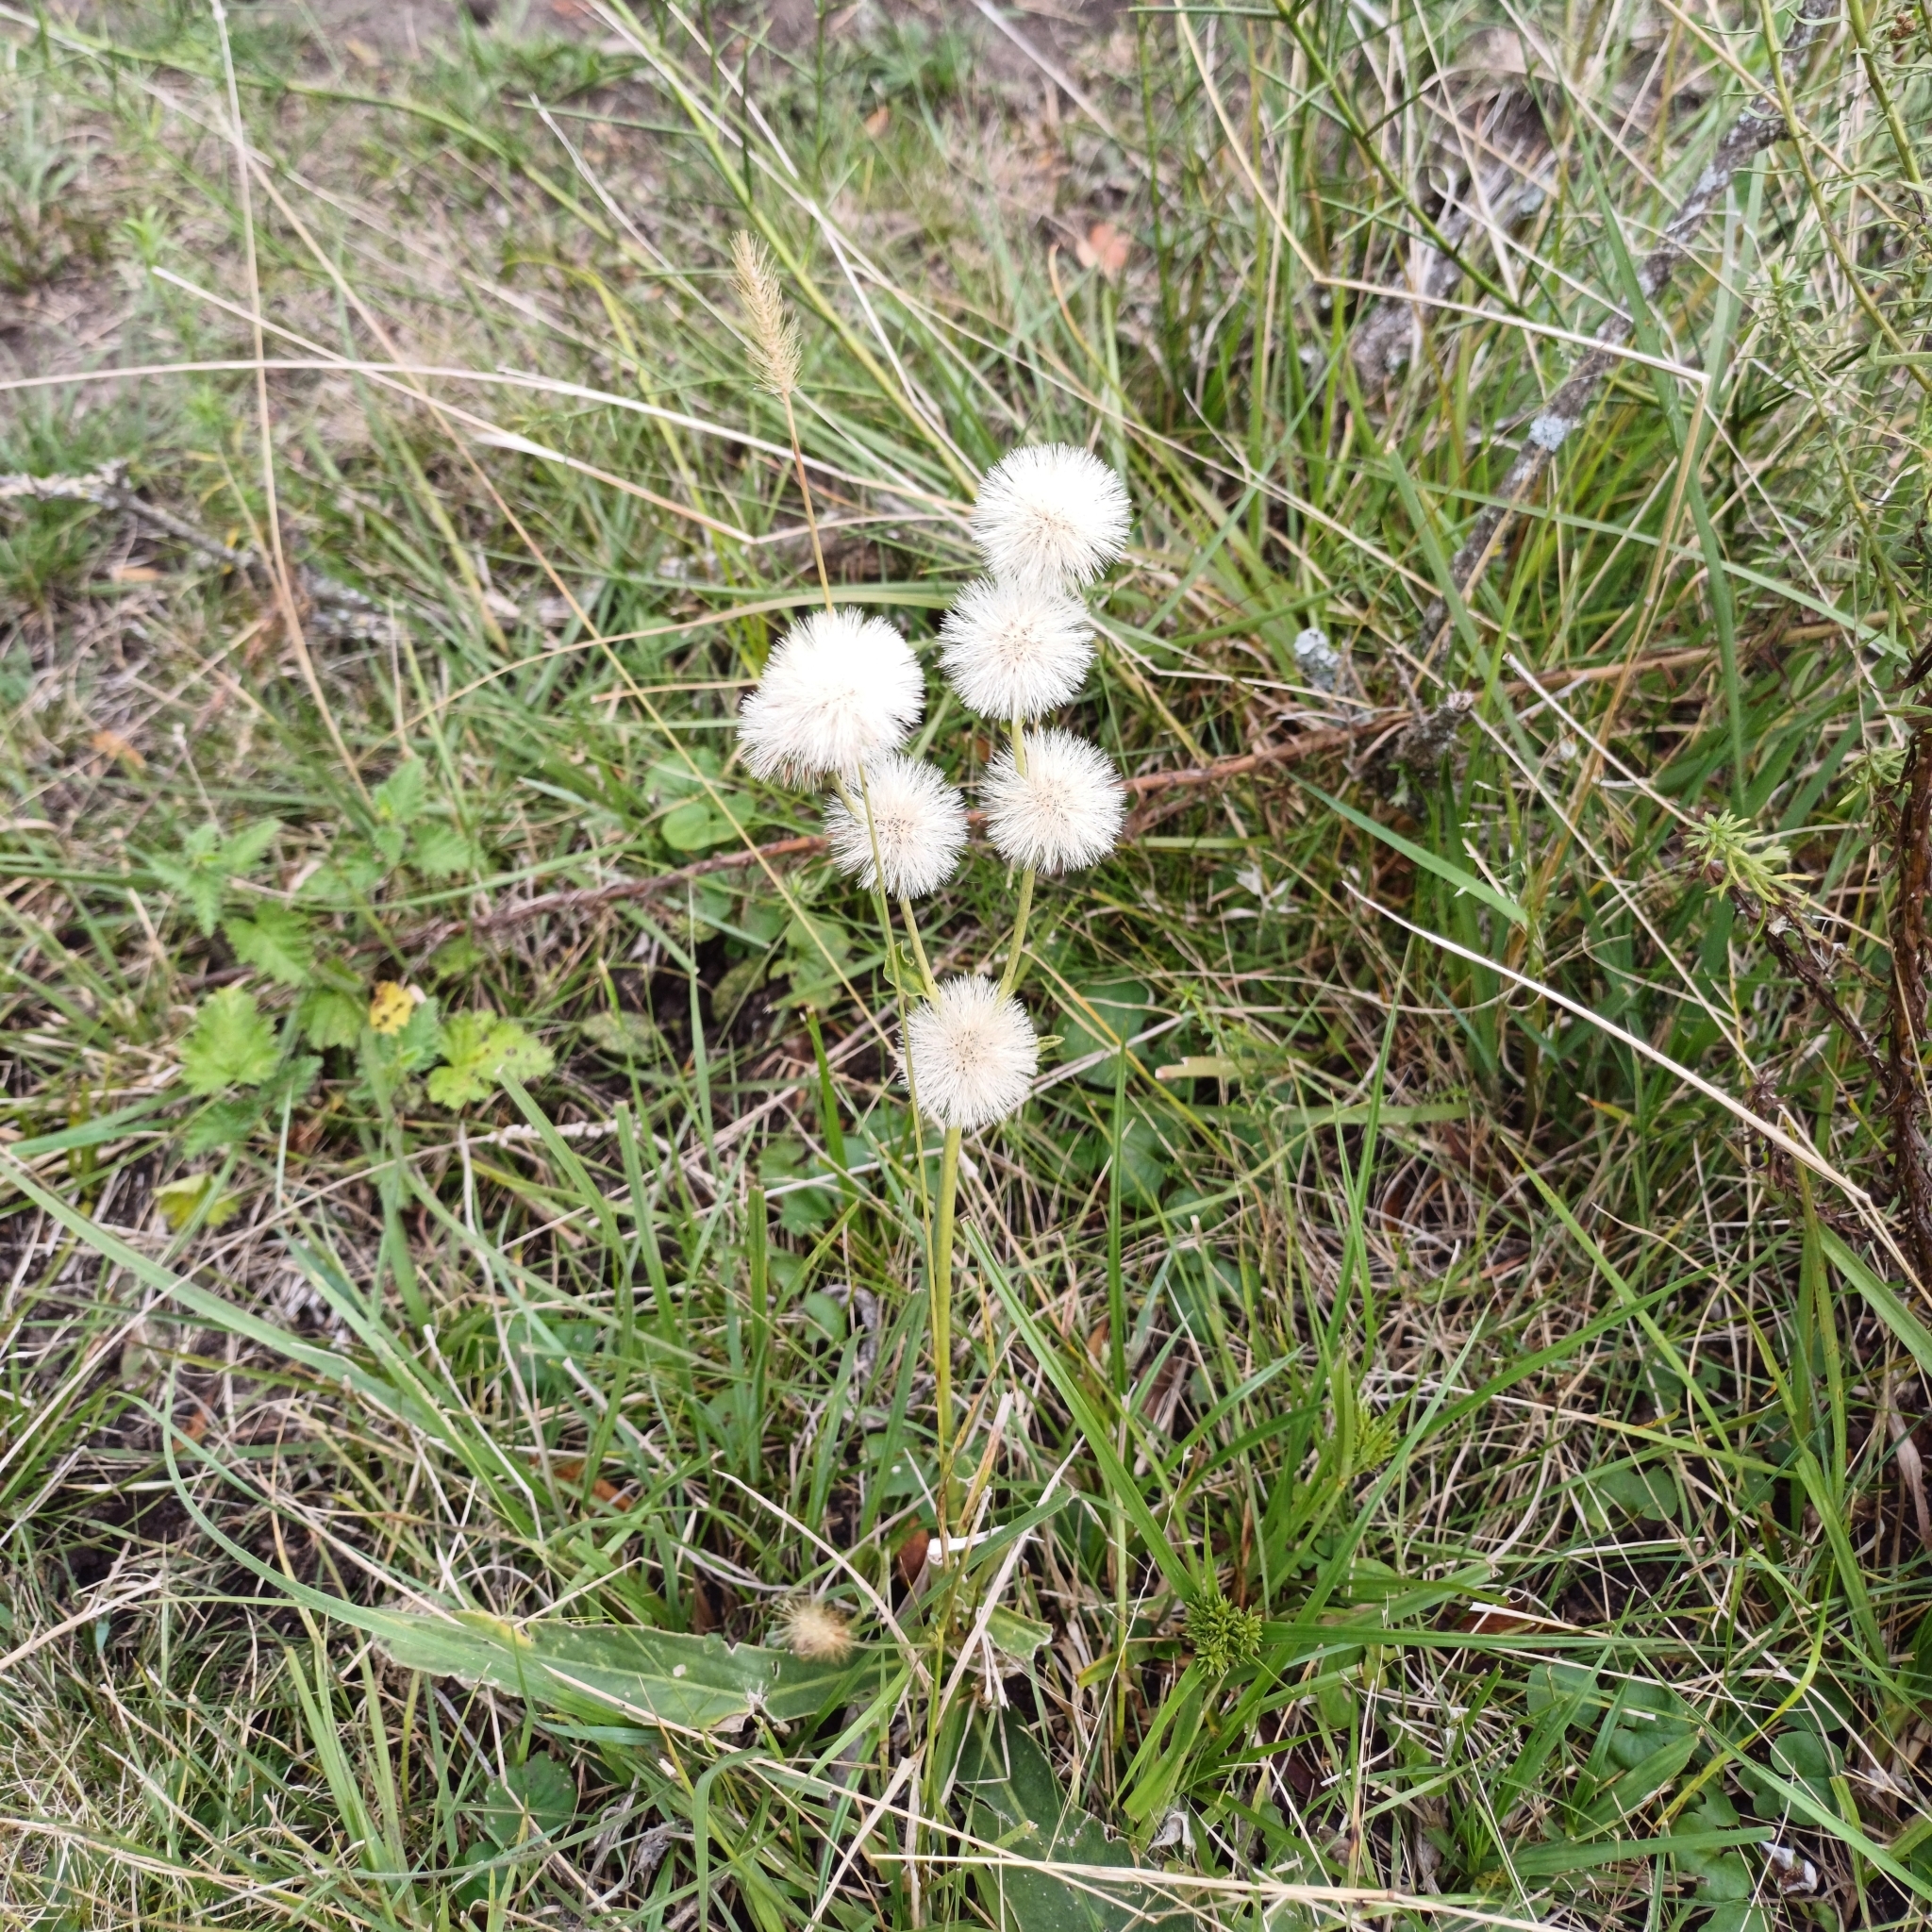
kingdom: Plantae
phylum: Tracheophyta
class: Magnoliopsida
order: Asterales
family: Asteraceae
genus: Chrysolaena
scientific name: Chrysolaena flexuosa
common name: Zig-zag vernonia
